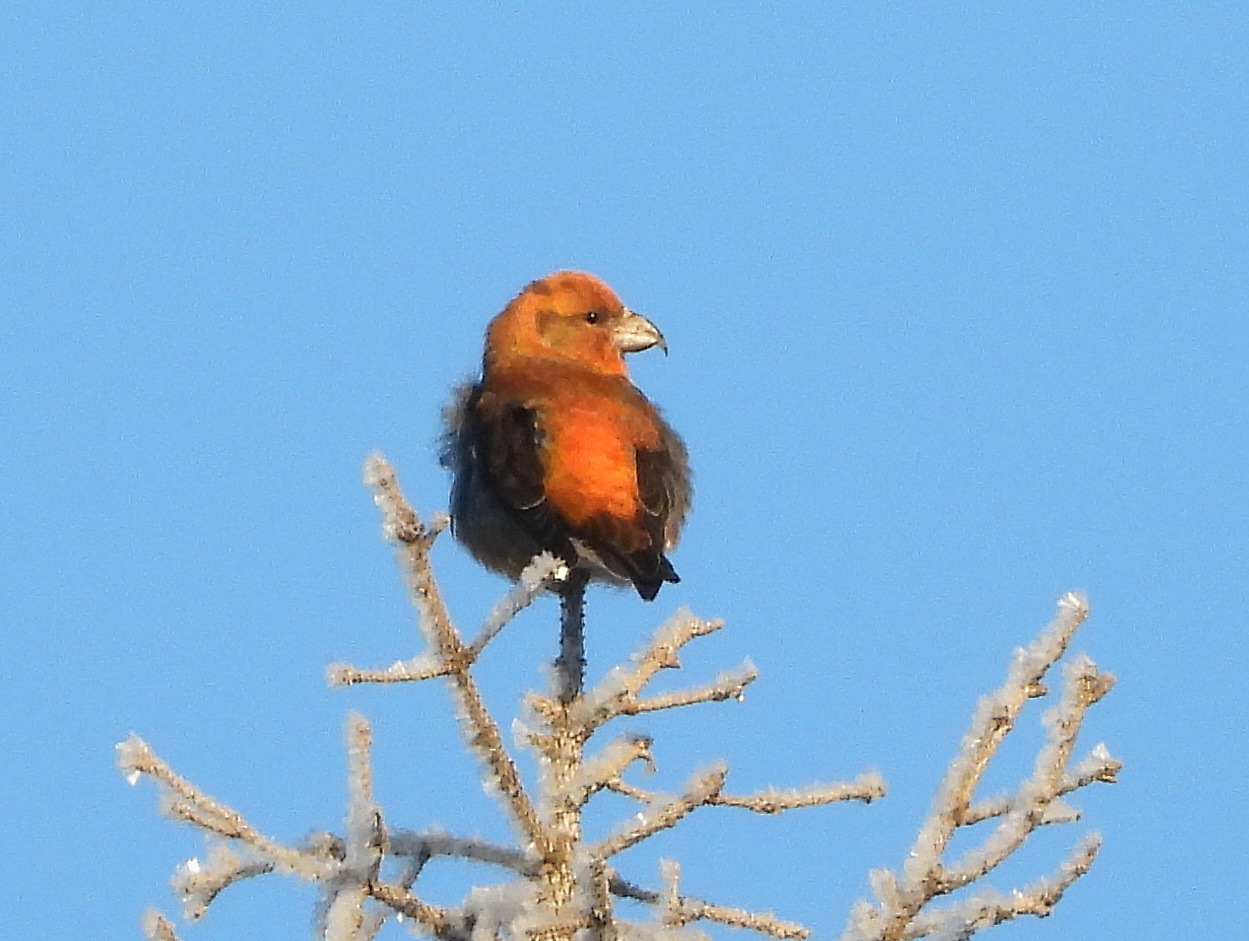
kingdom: Animalia
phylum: Chordata
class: Aves
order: Passeriformes
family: Fringillidae
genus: Loxia
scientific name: Loxia curvirostra
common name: Red crossbill
